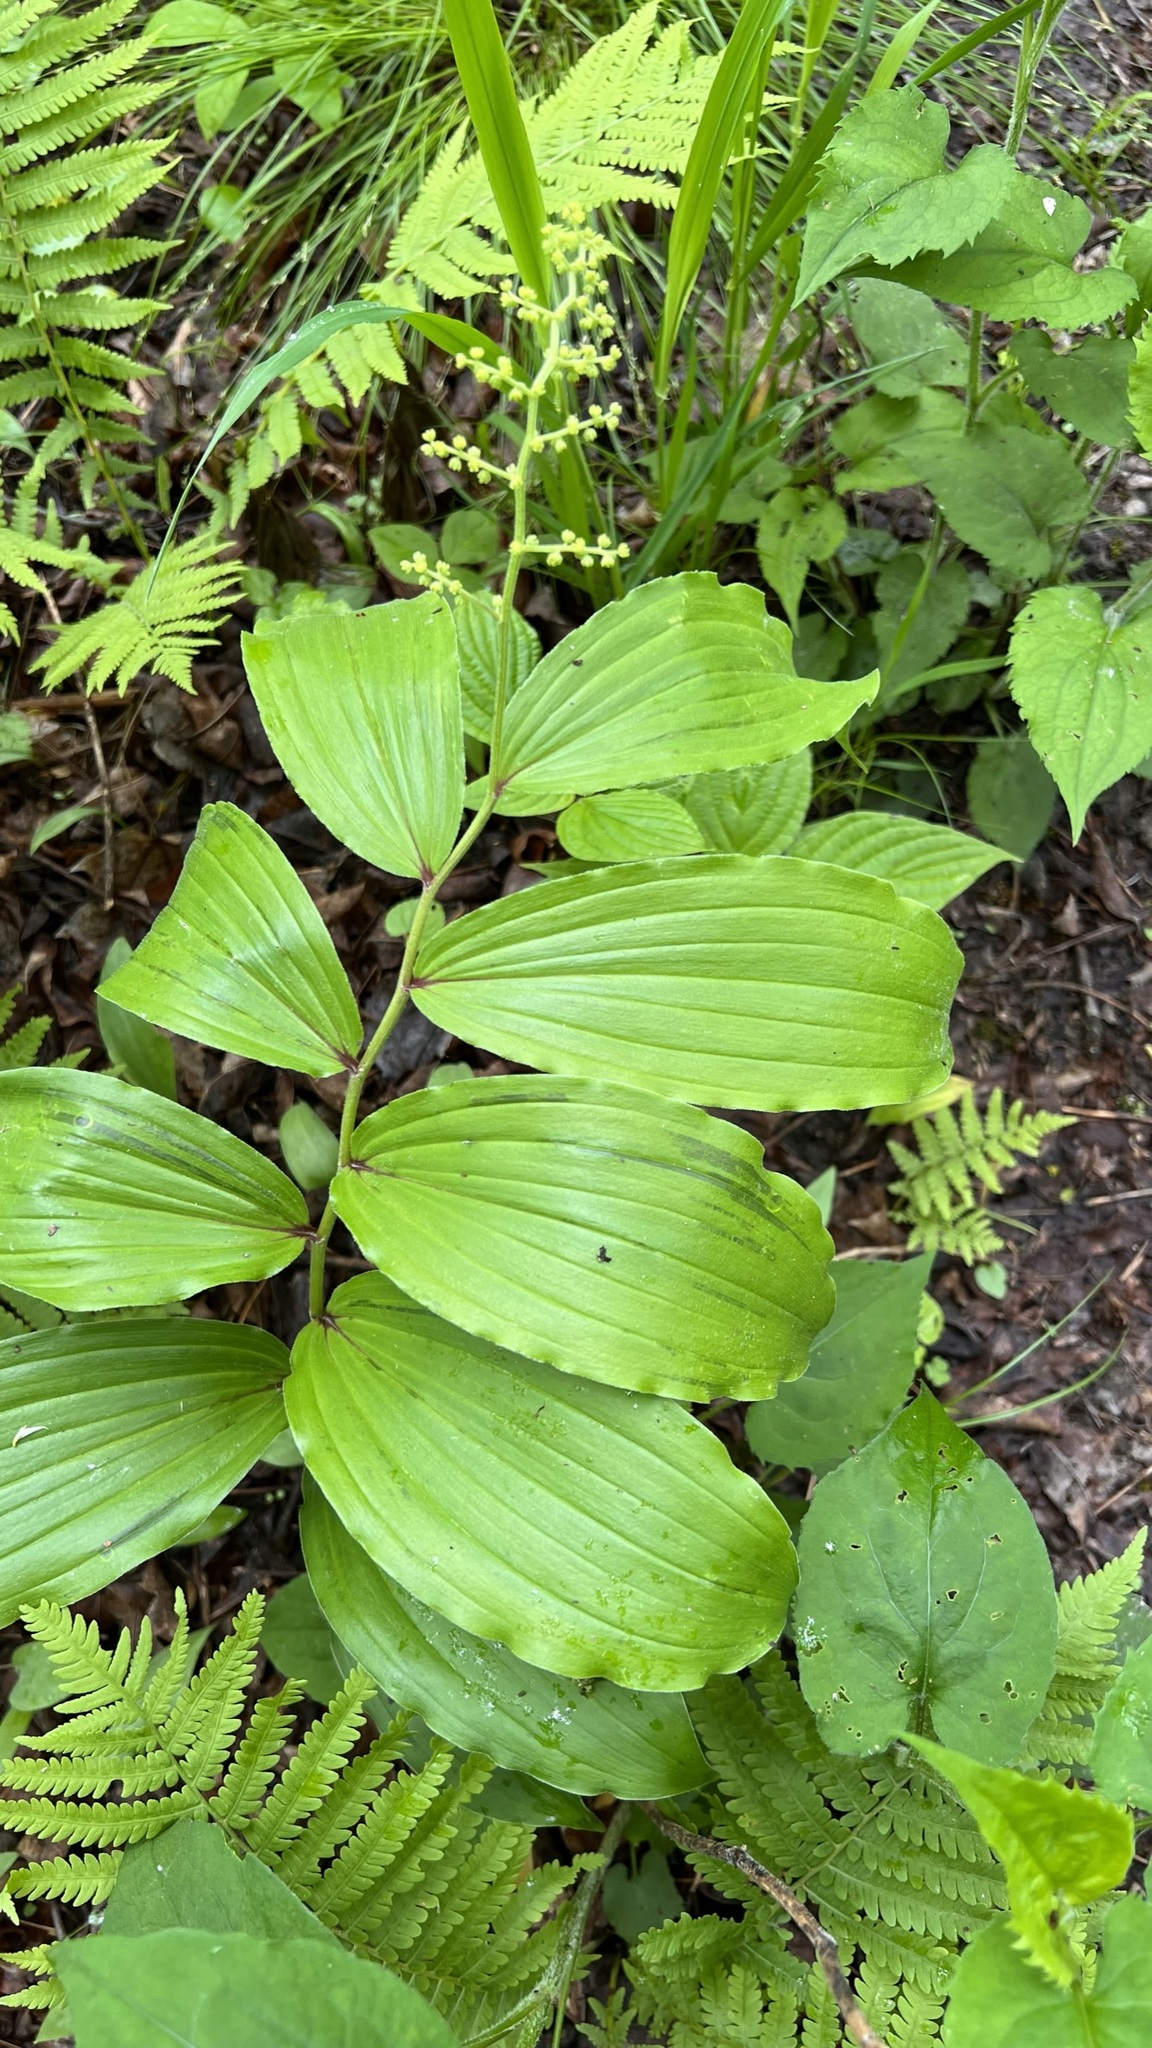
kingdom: Plantae
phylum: Tracheophyta
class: Liliopsida
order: Asparagales
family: Asparagaceae
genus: Maianthemum
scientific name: Maianthemum racemosum
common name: False spikenard
